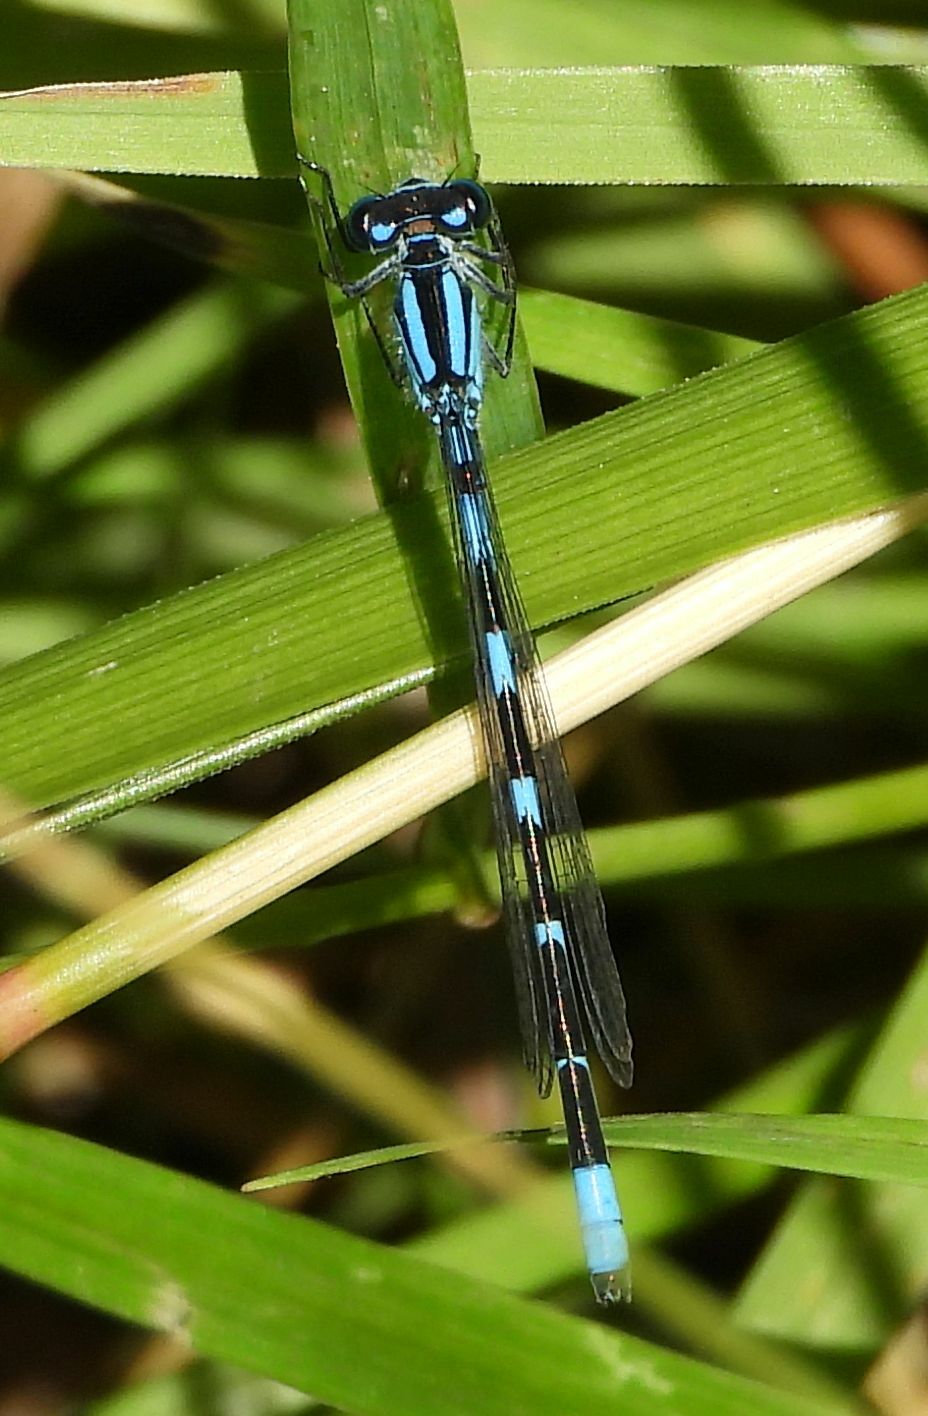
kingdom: Animalia
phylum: Arthropoda
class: Insecta
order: Odonata
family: Coenagrionidae
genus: Enallagma
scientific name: Enallagma carunculatum
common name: Tule bluet
